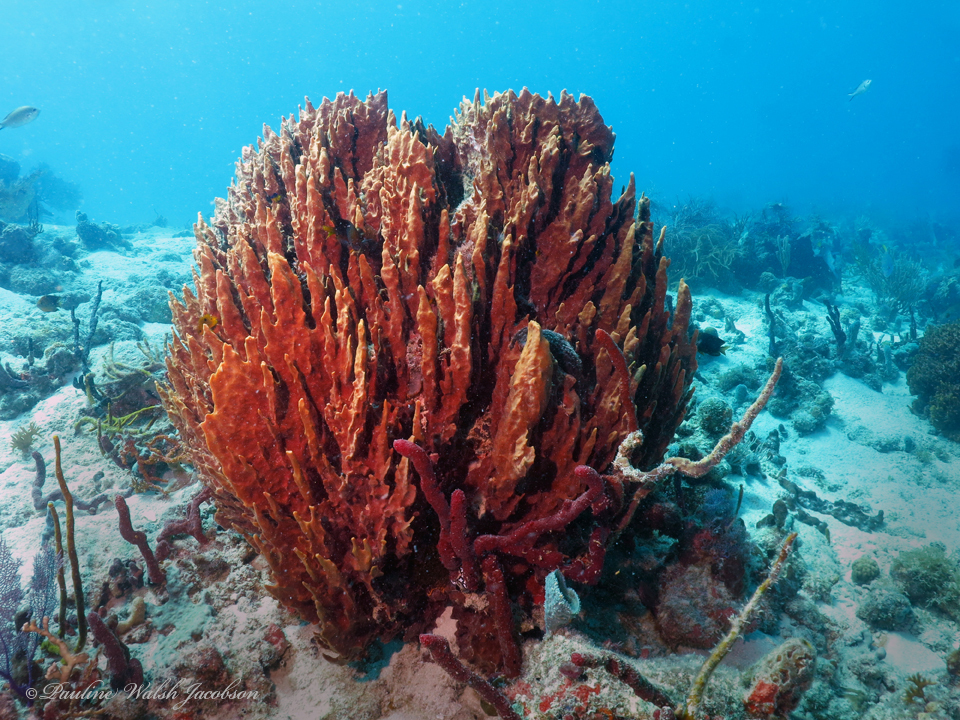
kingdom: Animalia
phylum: Porifera
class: Demospongiae
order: Haplosclerida
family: Petrosiidae
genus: Xestospongia
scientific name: Xestospongia muta
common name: Giant barrel sponge
